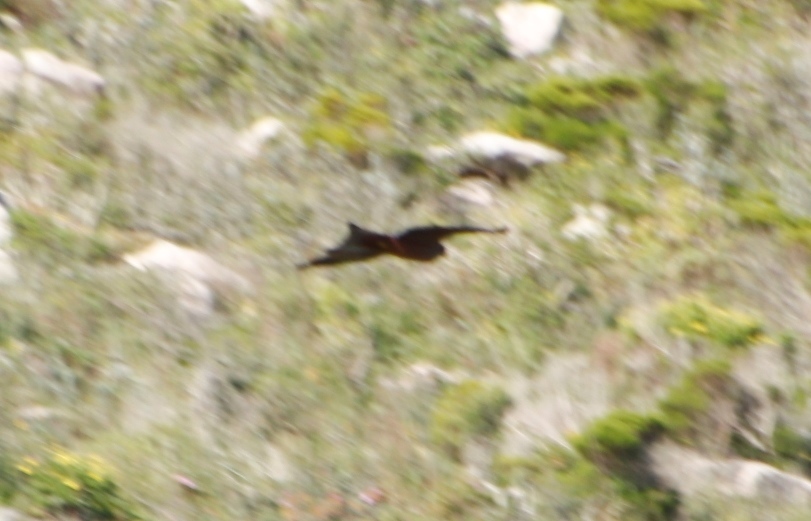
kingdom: Animalia
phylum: Chordata
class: Aves
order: Accipitriformes
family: Accipitridae
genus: Milvus
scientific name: Milvus migrans
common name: Black kite
